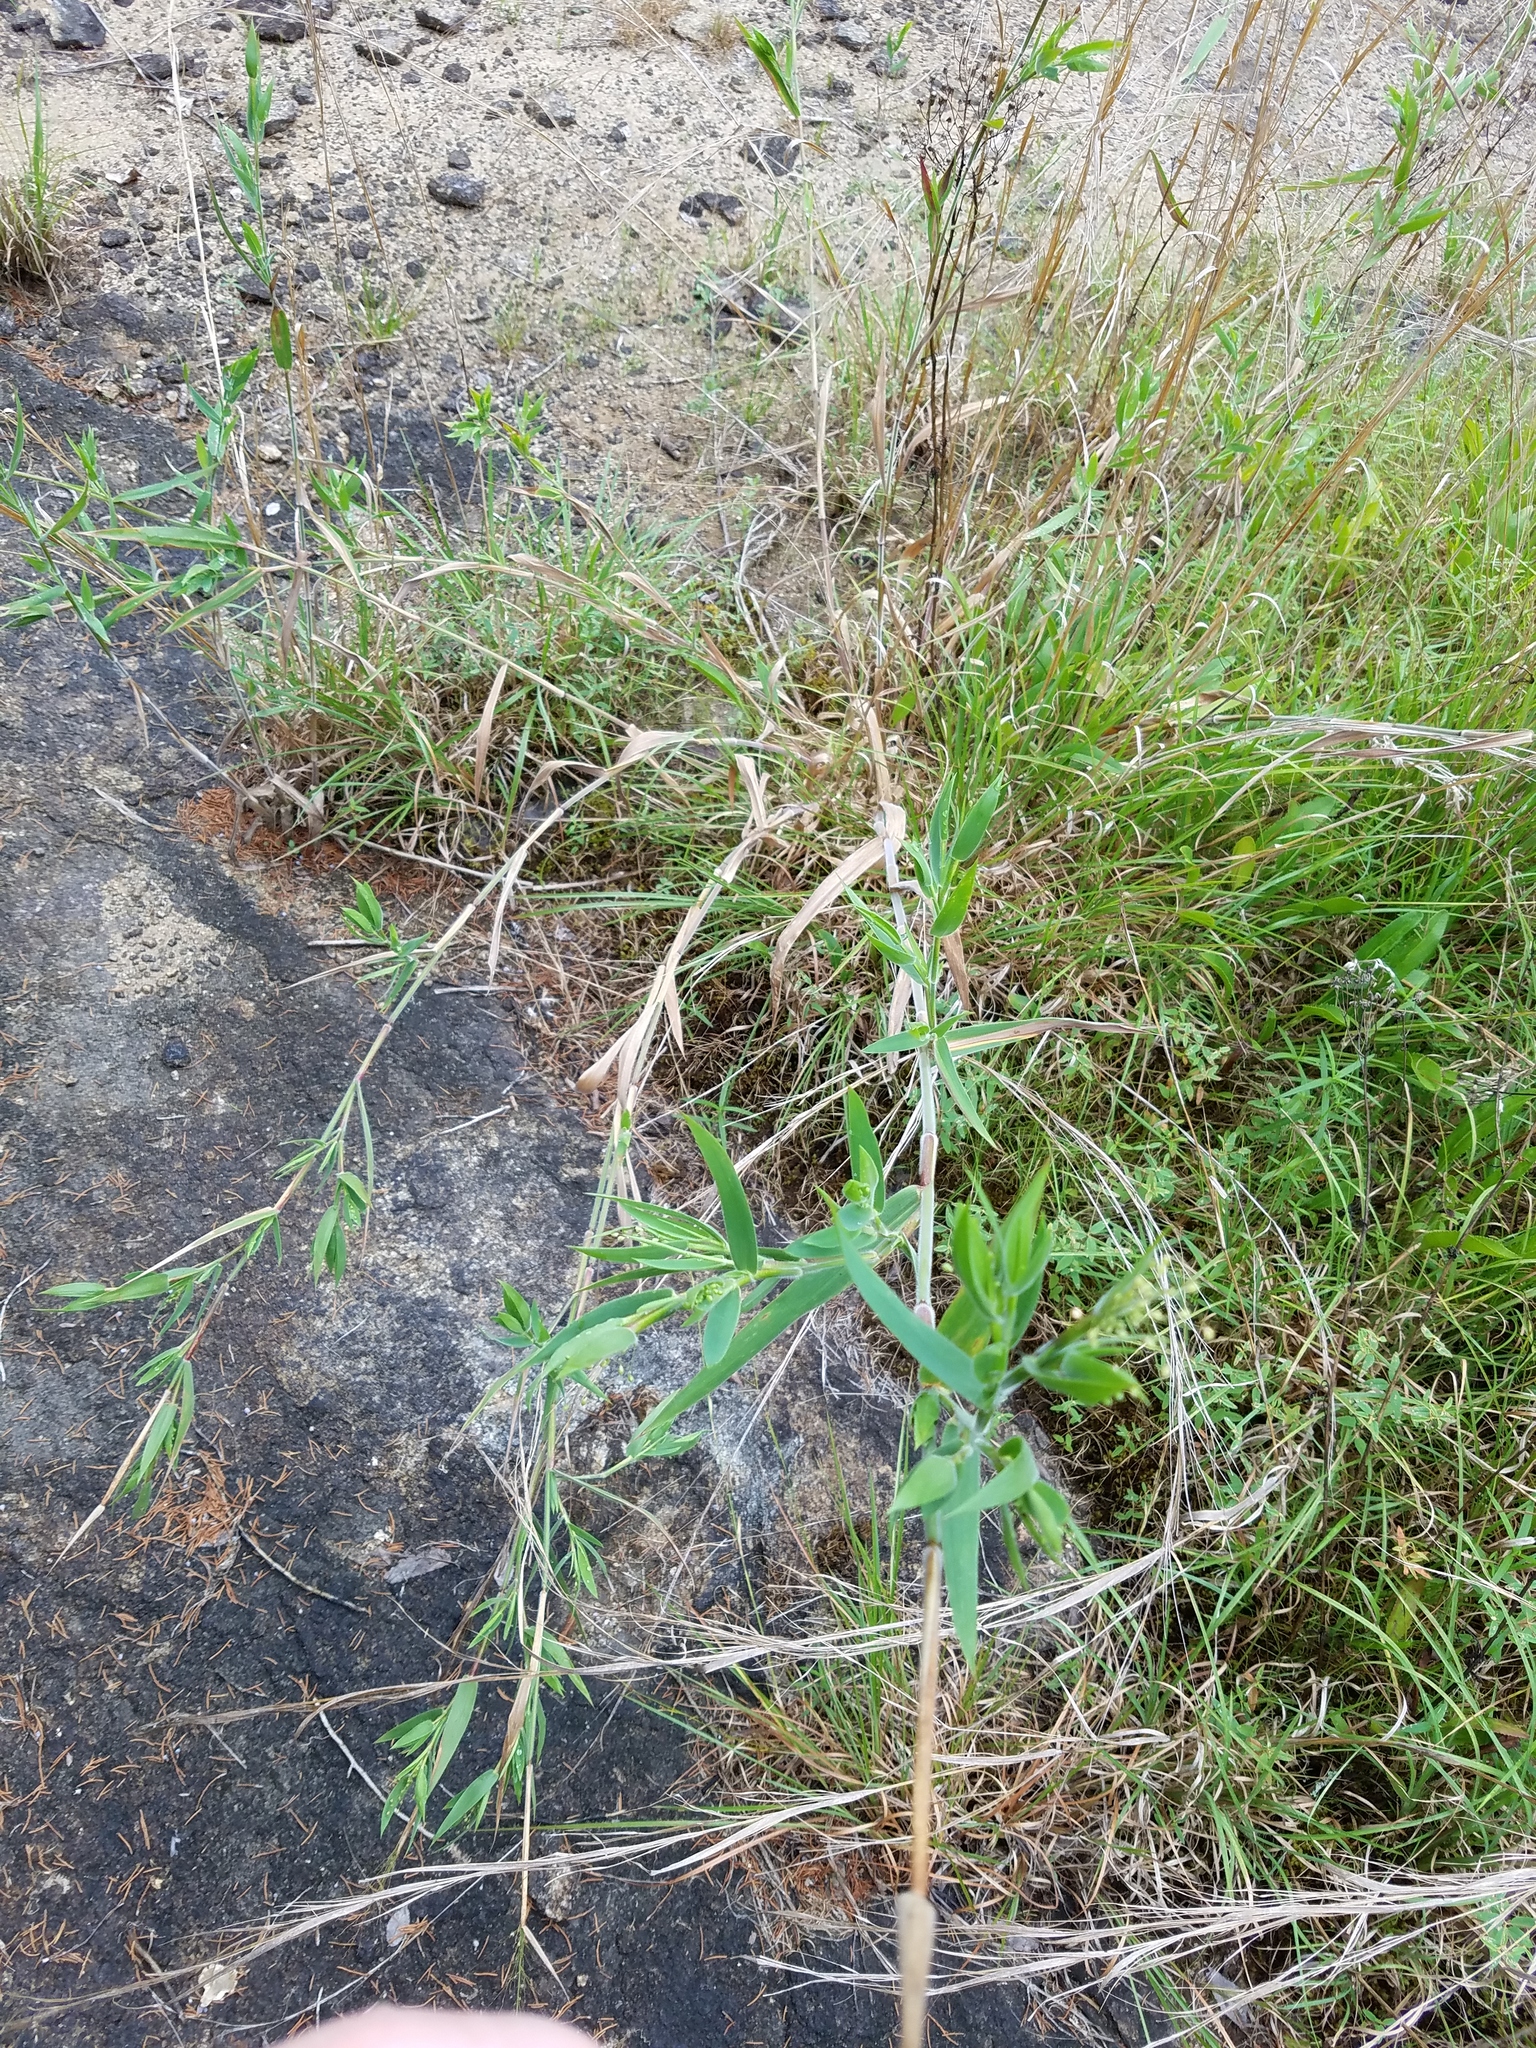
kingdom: Plantae
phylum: Tracheophyta
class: Liliopsida
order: Poales
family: Poaceae
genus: Dichanthelium
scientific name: Dichanthelium scoparium
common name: Velvety panic grass
